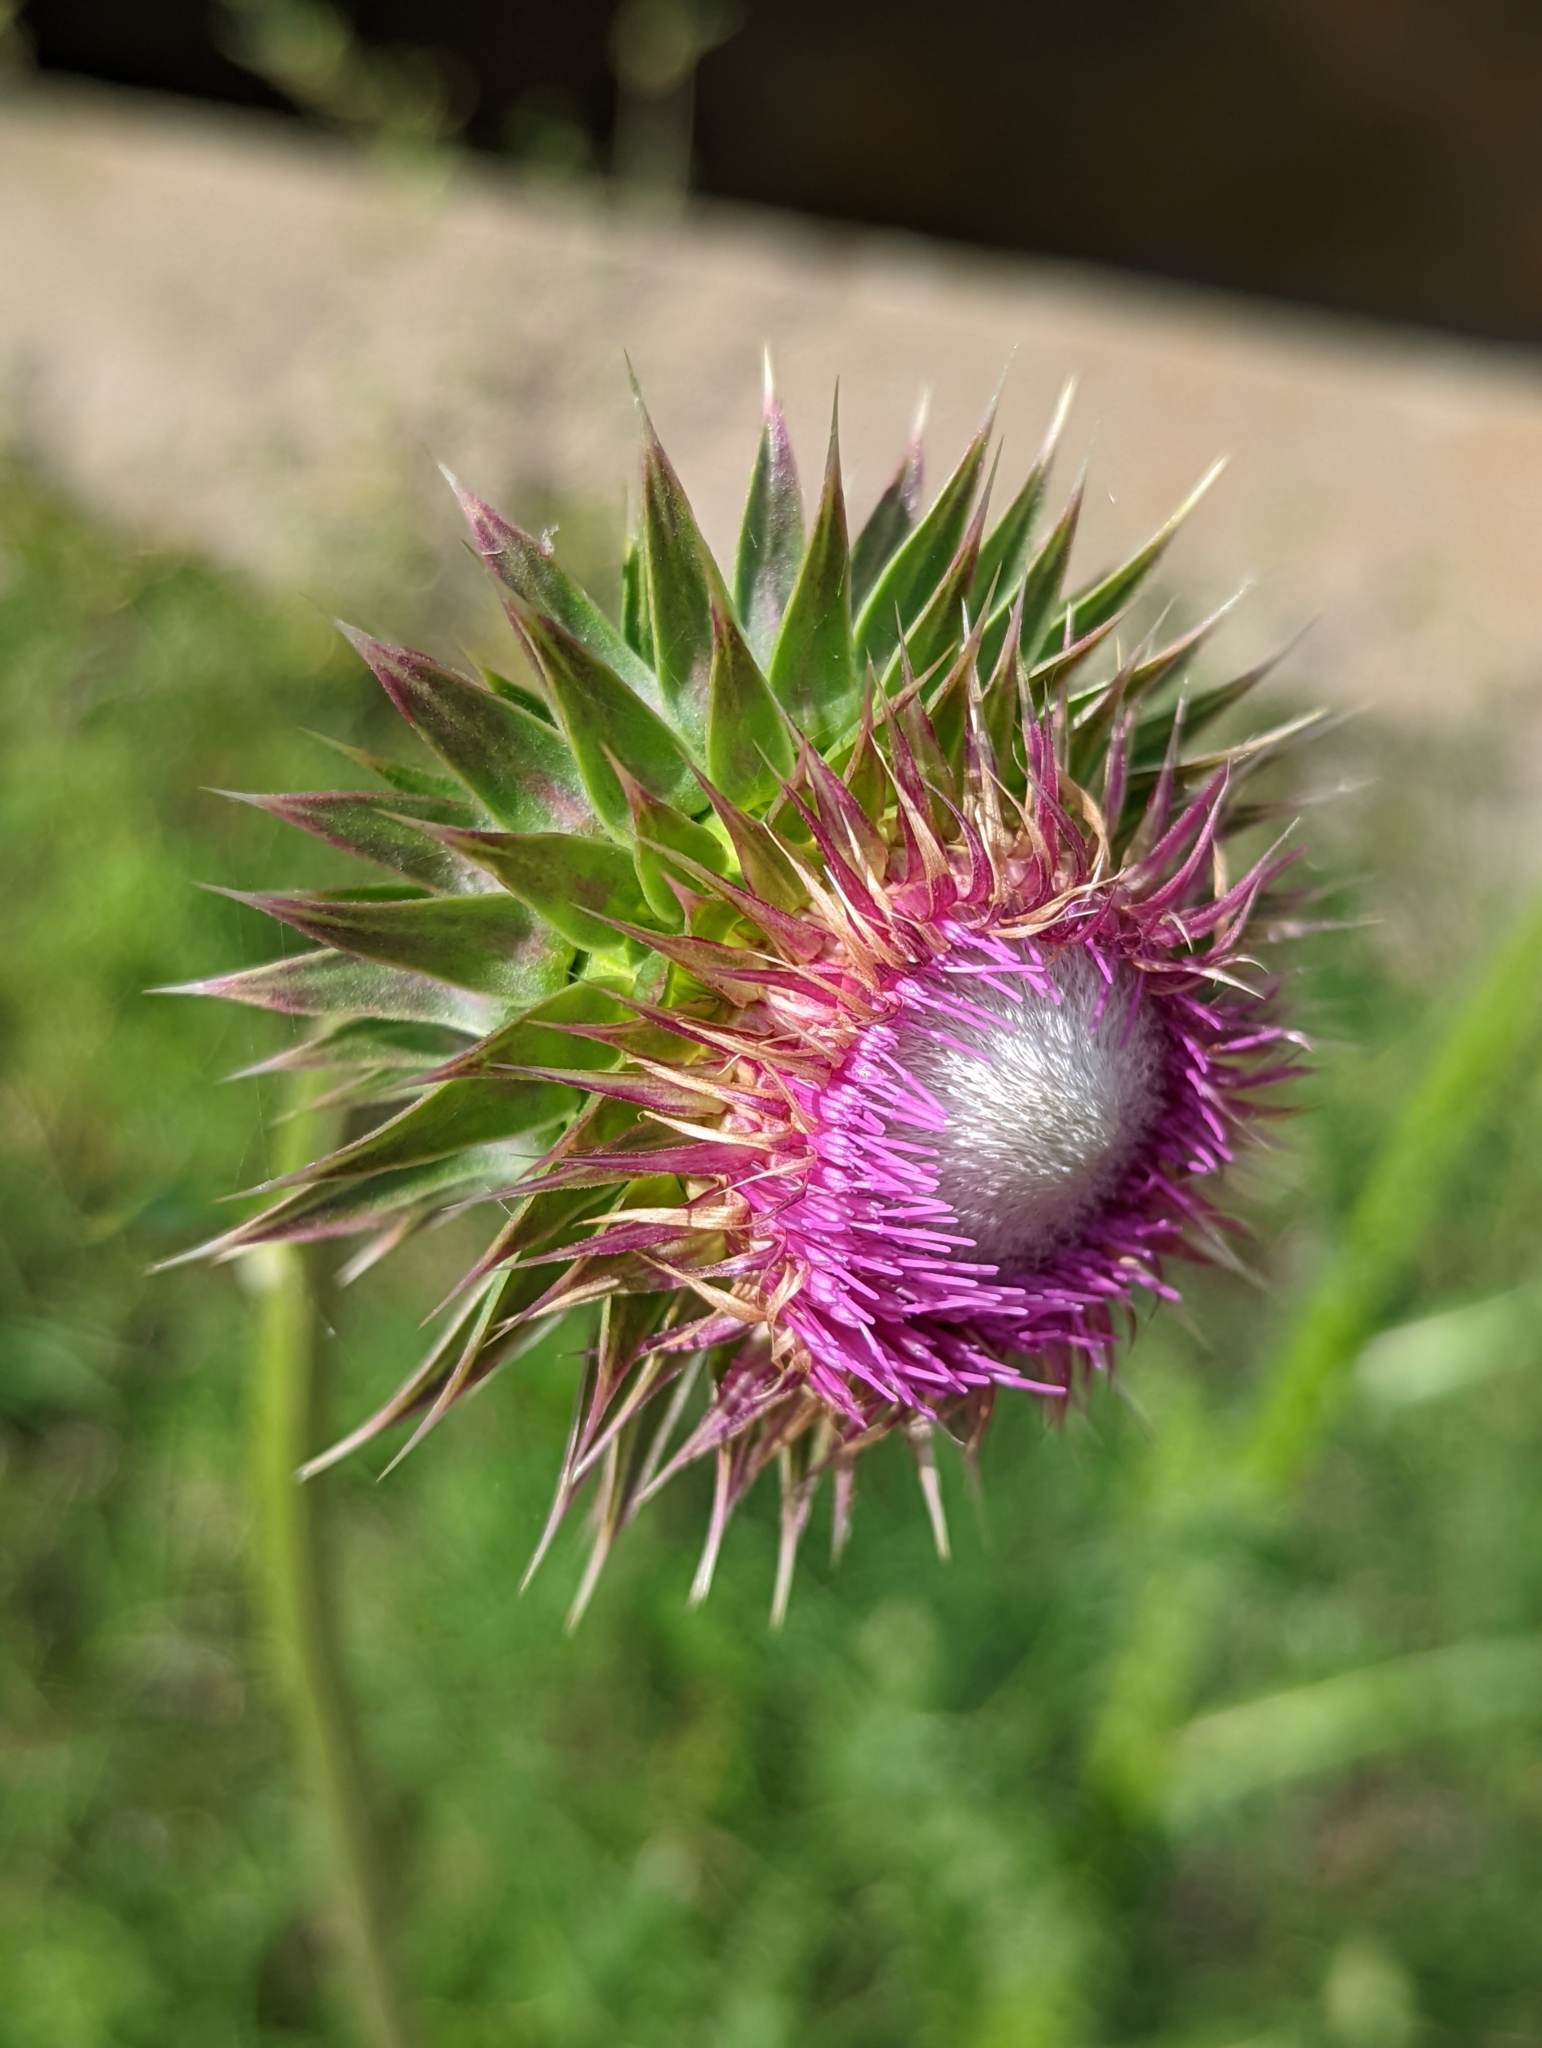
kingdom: Plantae
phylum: Tracheophyta
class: Magnoliopsida
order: Asterales
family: Asteraceae
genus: Carduus
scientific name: Carduus nutans
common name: Musk thistle
